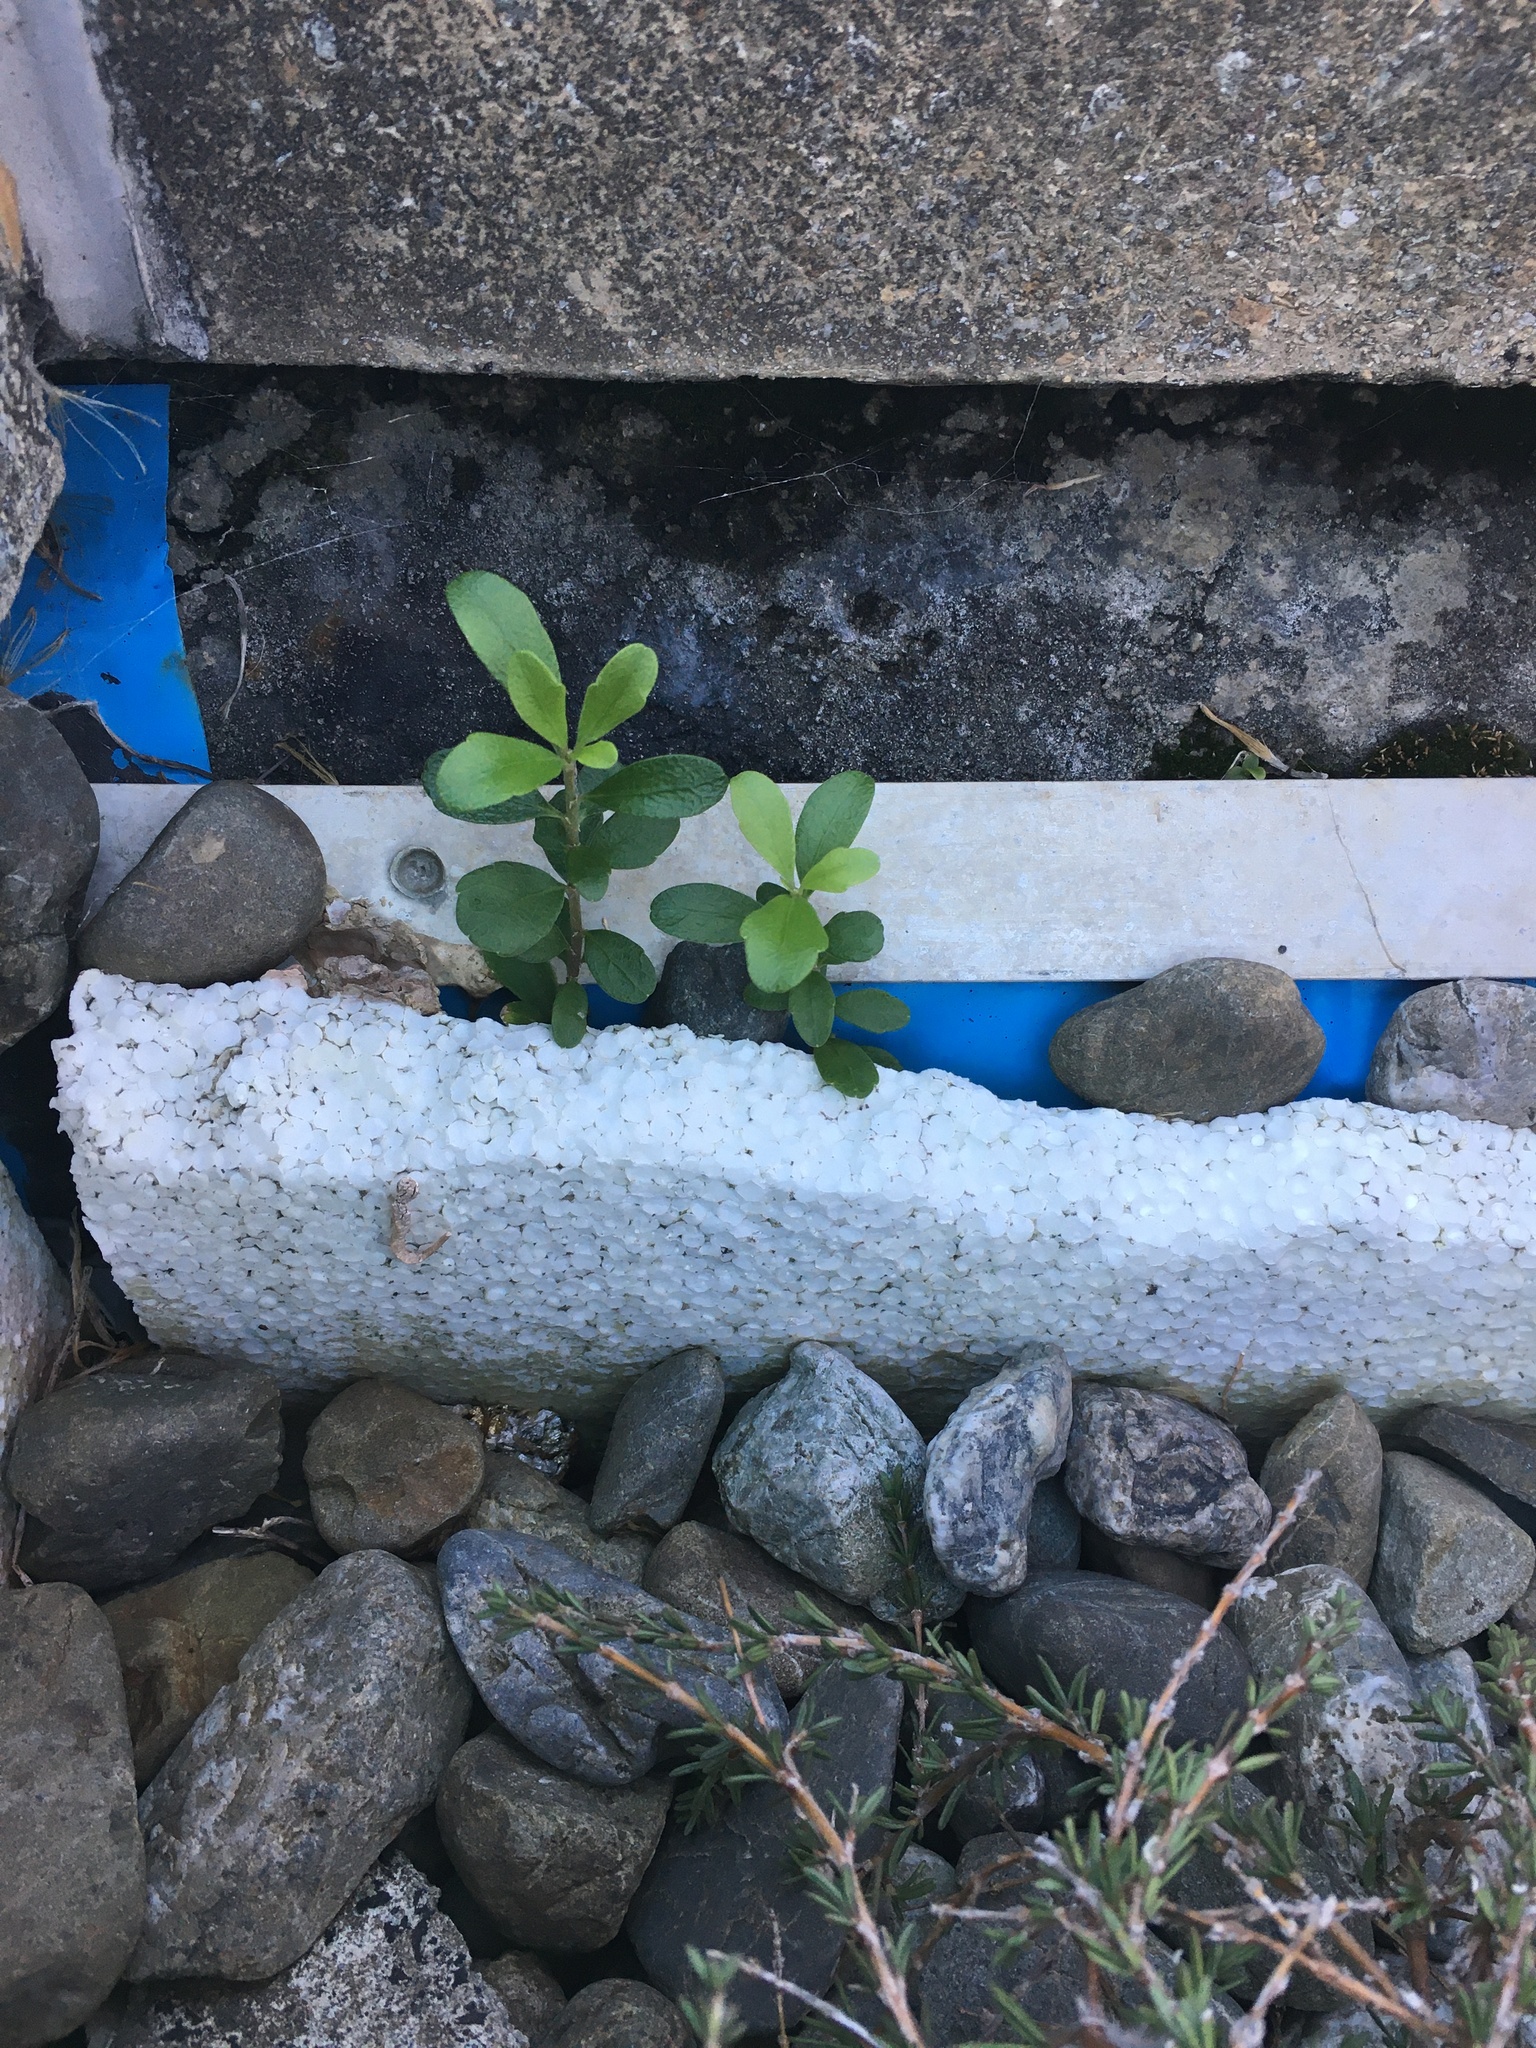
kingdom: Plantae
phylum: Tracheophyta
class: Magnoliopsida
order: Malpighiales
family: Violaceae
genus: Melicytus
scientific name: Melicytus orarius
